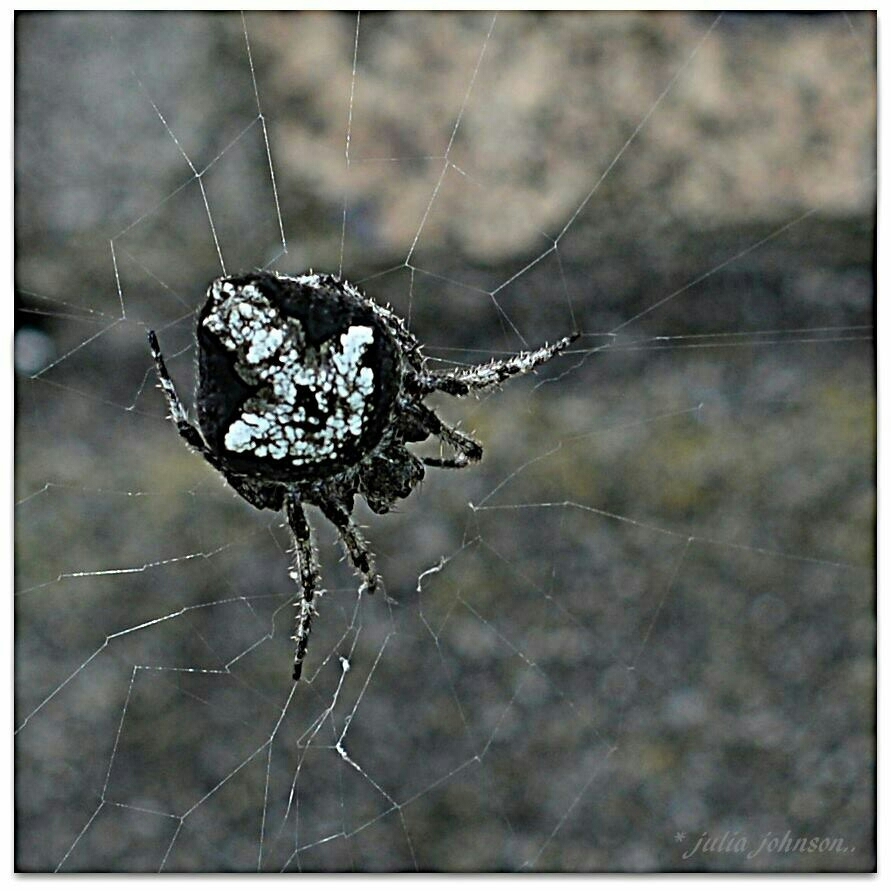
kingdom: Animalia
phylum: Arthropoda
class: Arachnida
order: Araneae
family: Araneidae
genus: Eriophora
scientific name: Eriophora pustulosa
